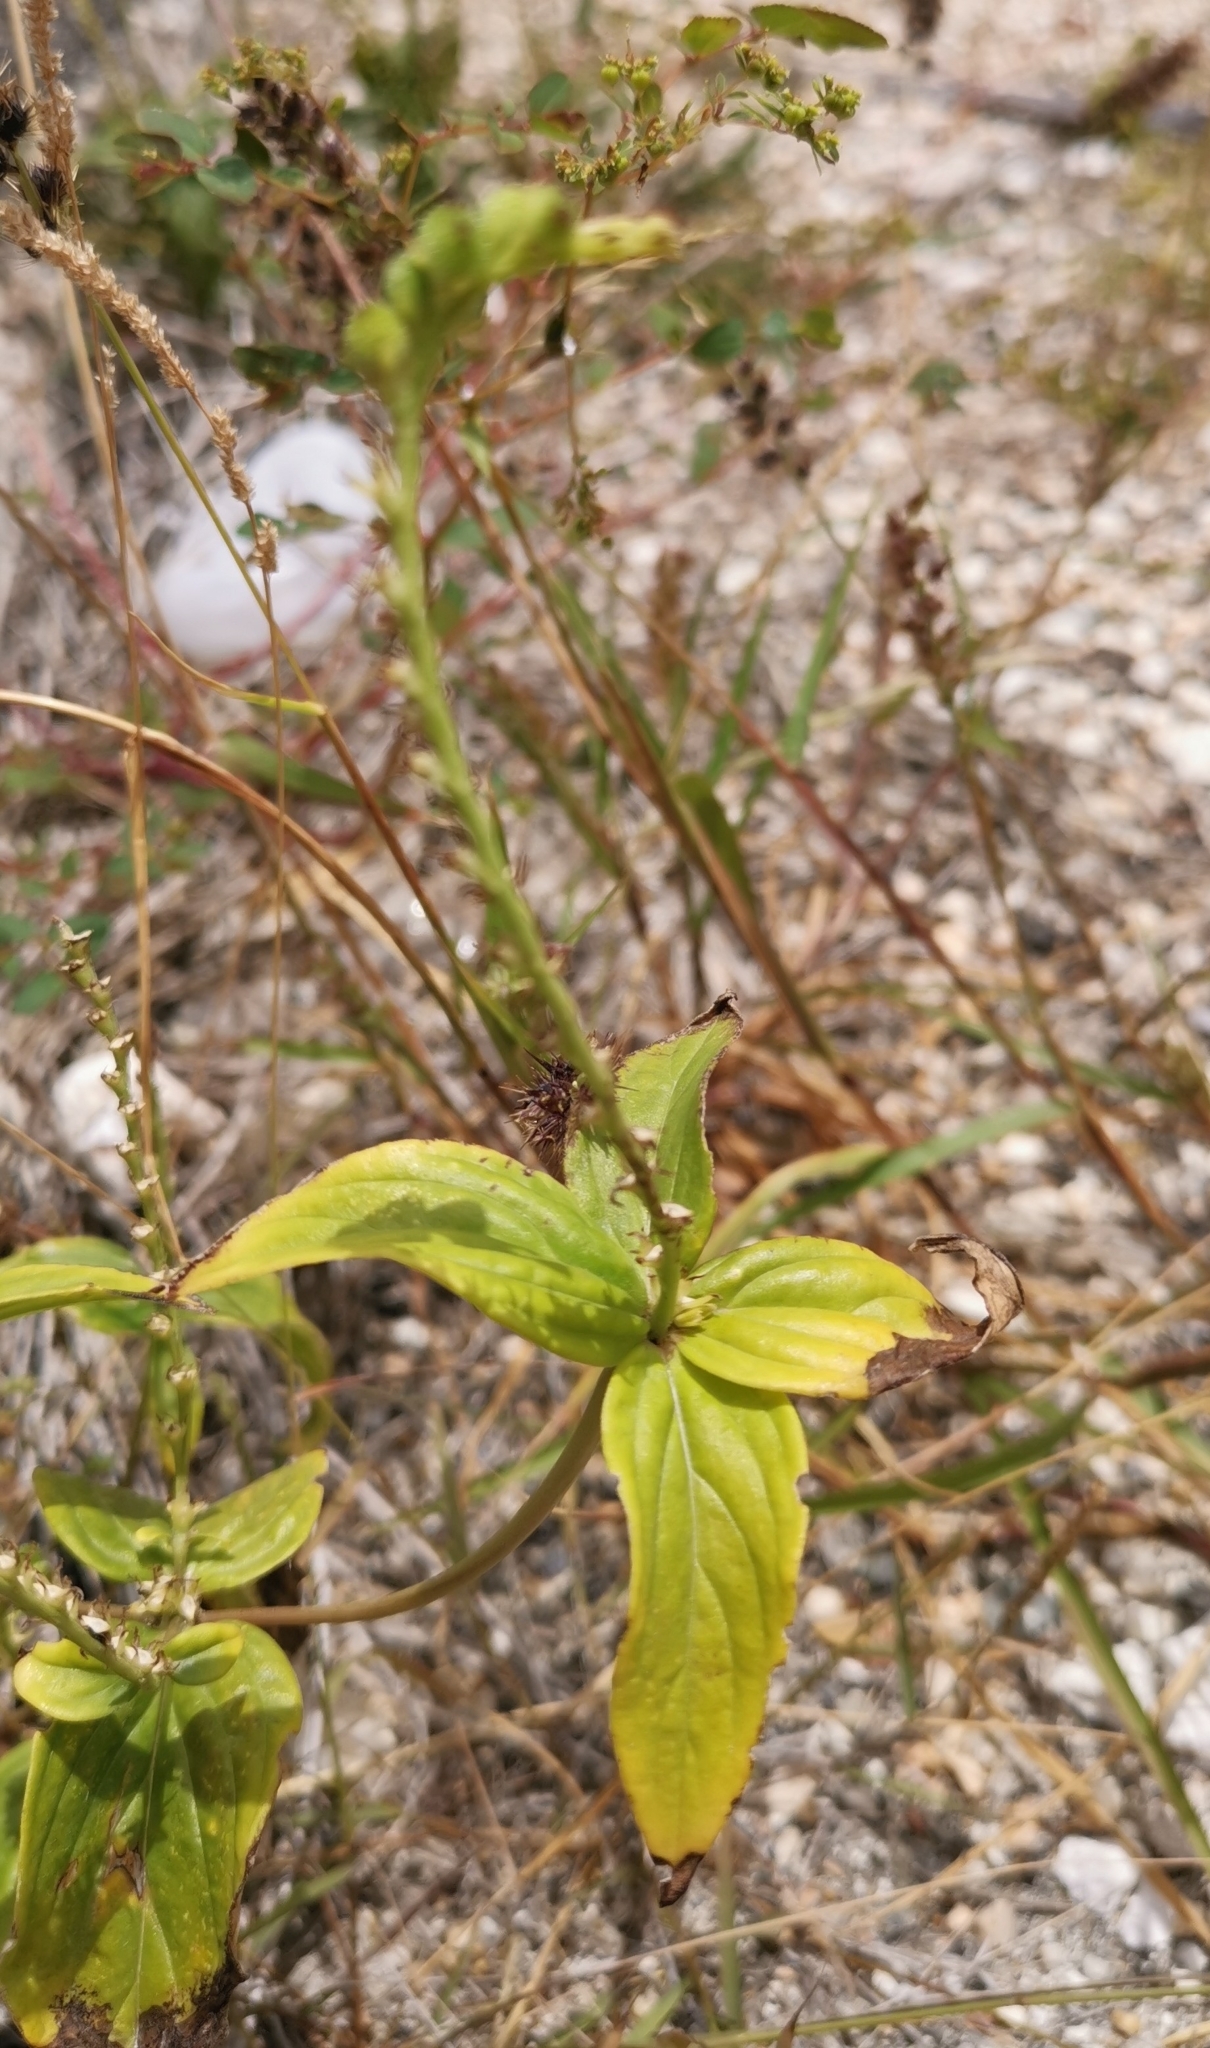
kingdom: Plantae
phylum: Tracheophyta
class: Magnoliopsida
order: Gentianales
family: Loganiaceae
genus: Spigelia
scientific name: Spigelia anthelmia
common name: West indian-pink
